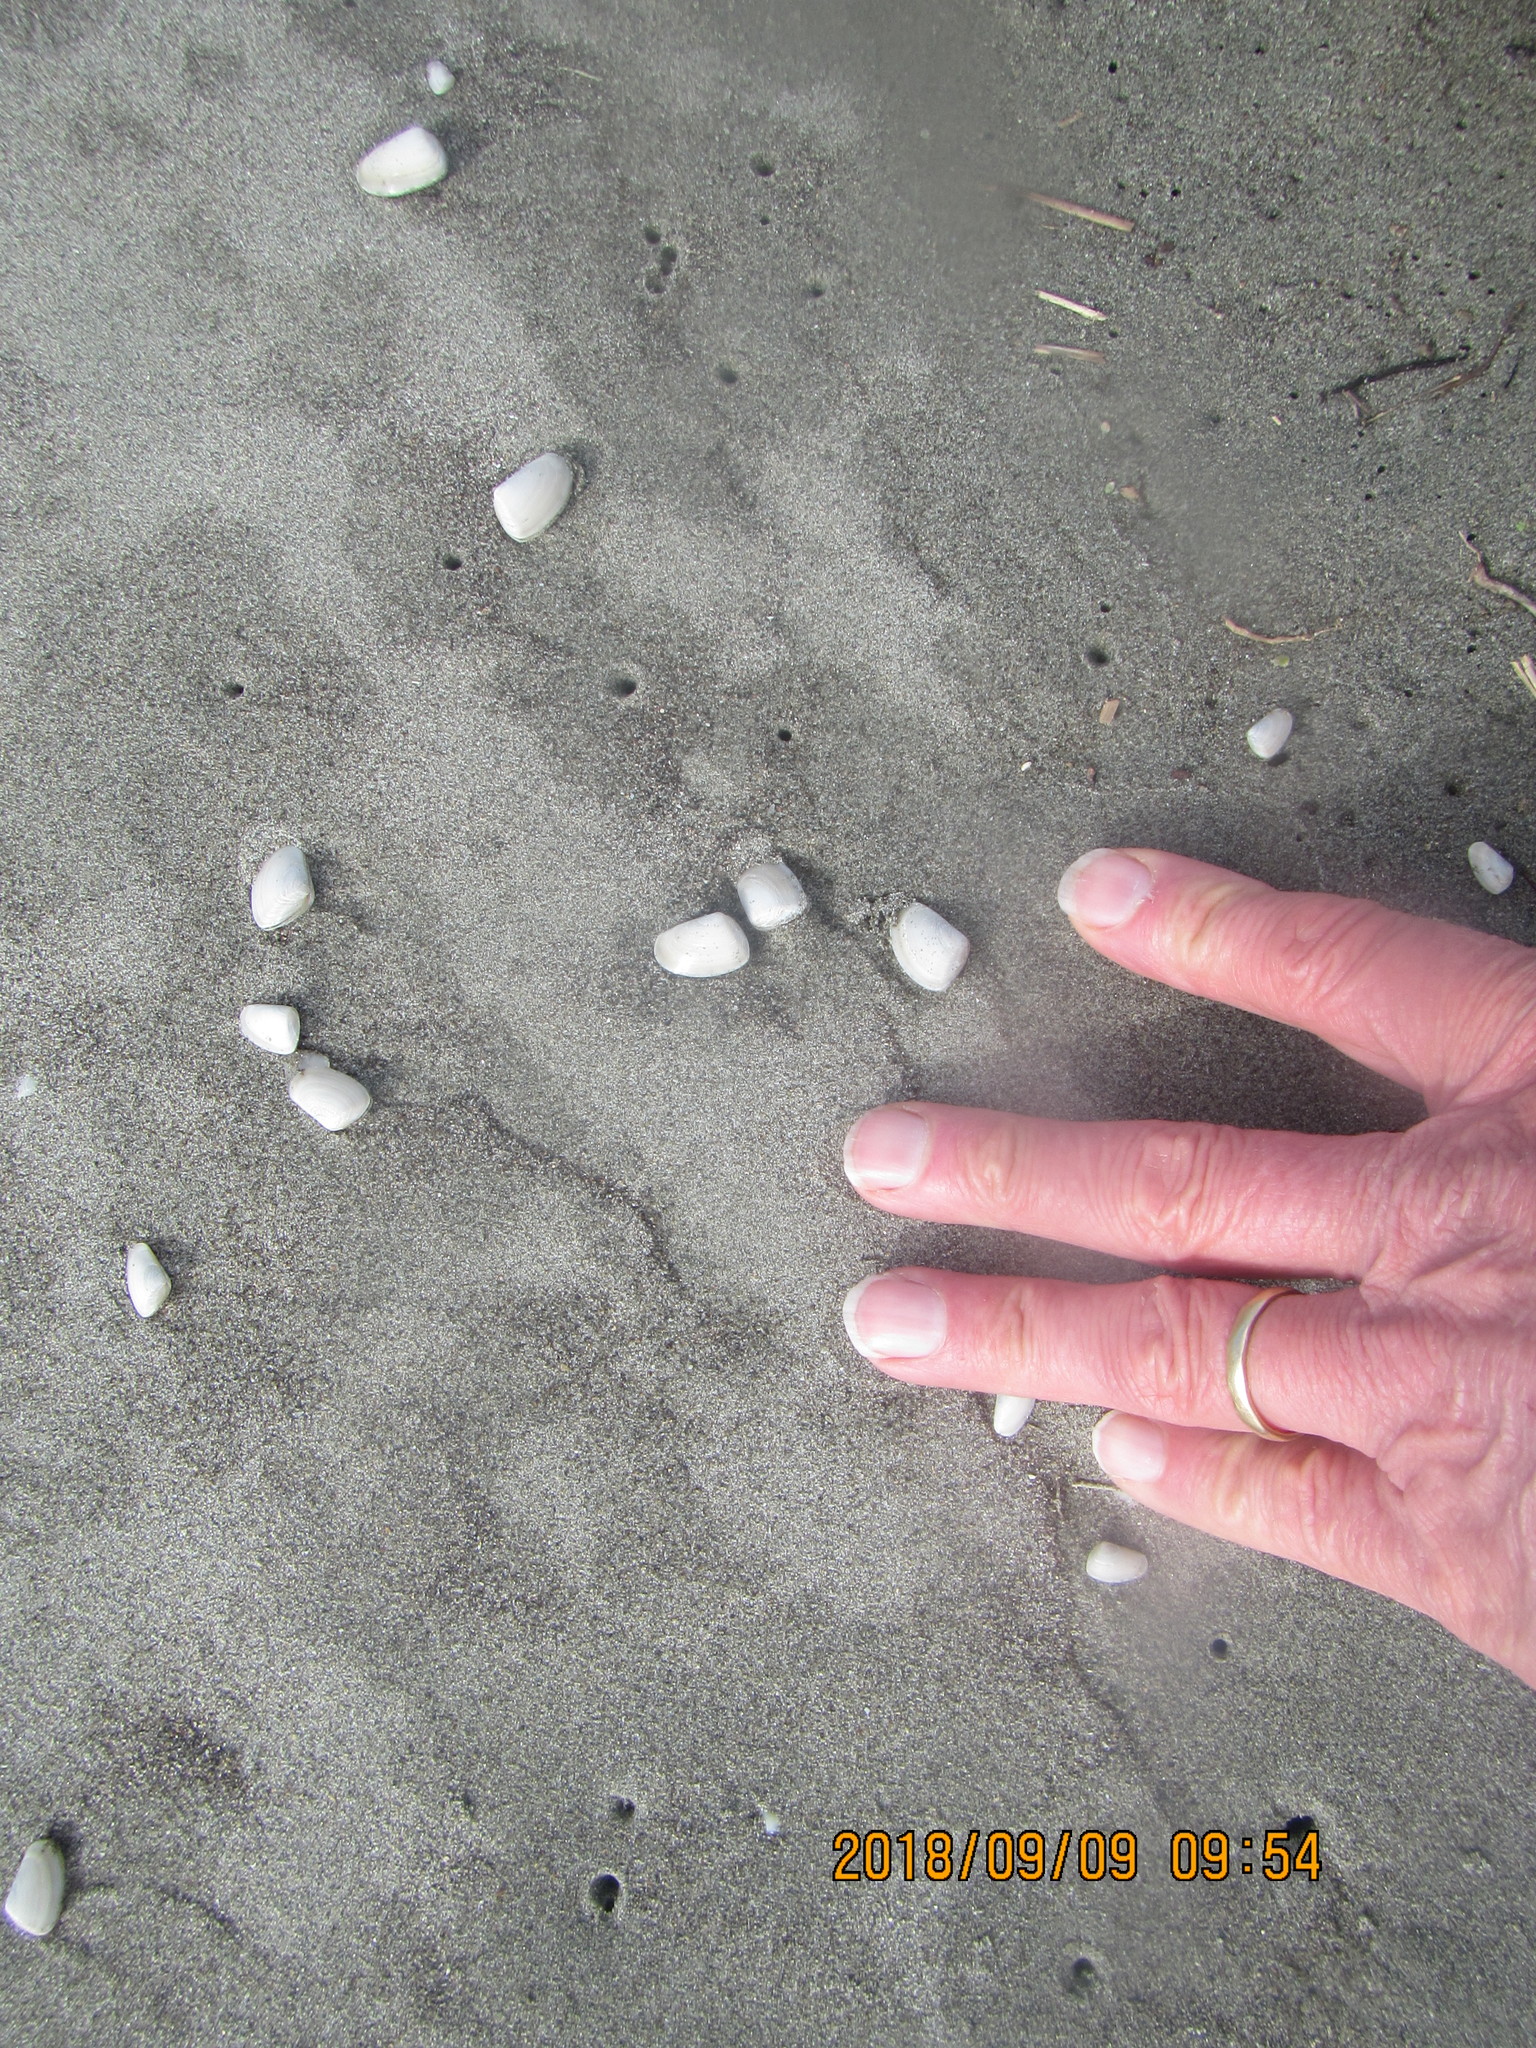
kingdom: Animalia
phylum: Mollusca
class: Bivalvia
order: Venerida
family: Mesodesmatidae
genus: Paphies
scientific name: Paphies subtriangulata
